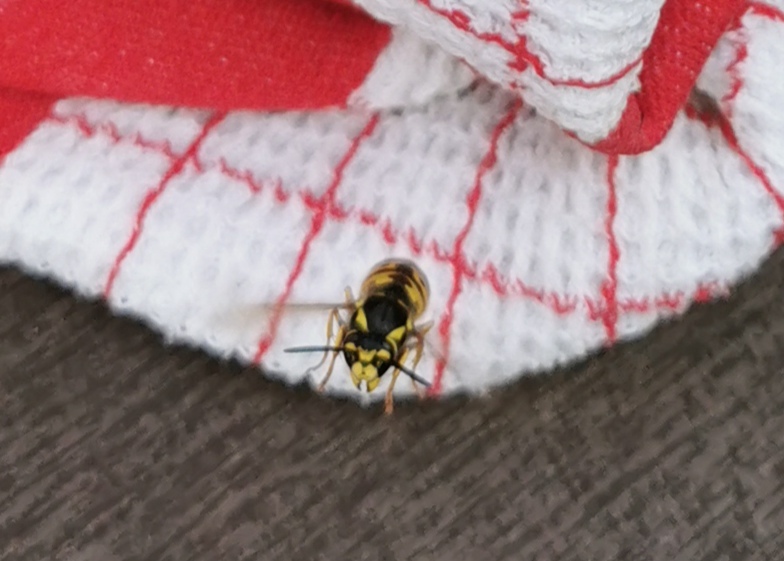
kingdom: Animalia
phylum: Arthropoda
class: Insecta
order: Hymenoptera
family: Vespidae
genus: Vespula
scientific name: Vespula germanica
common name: German wasp
